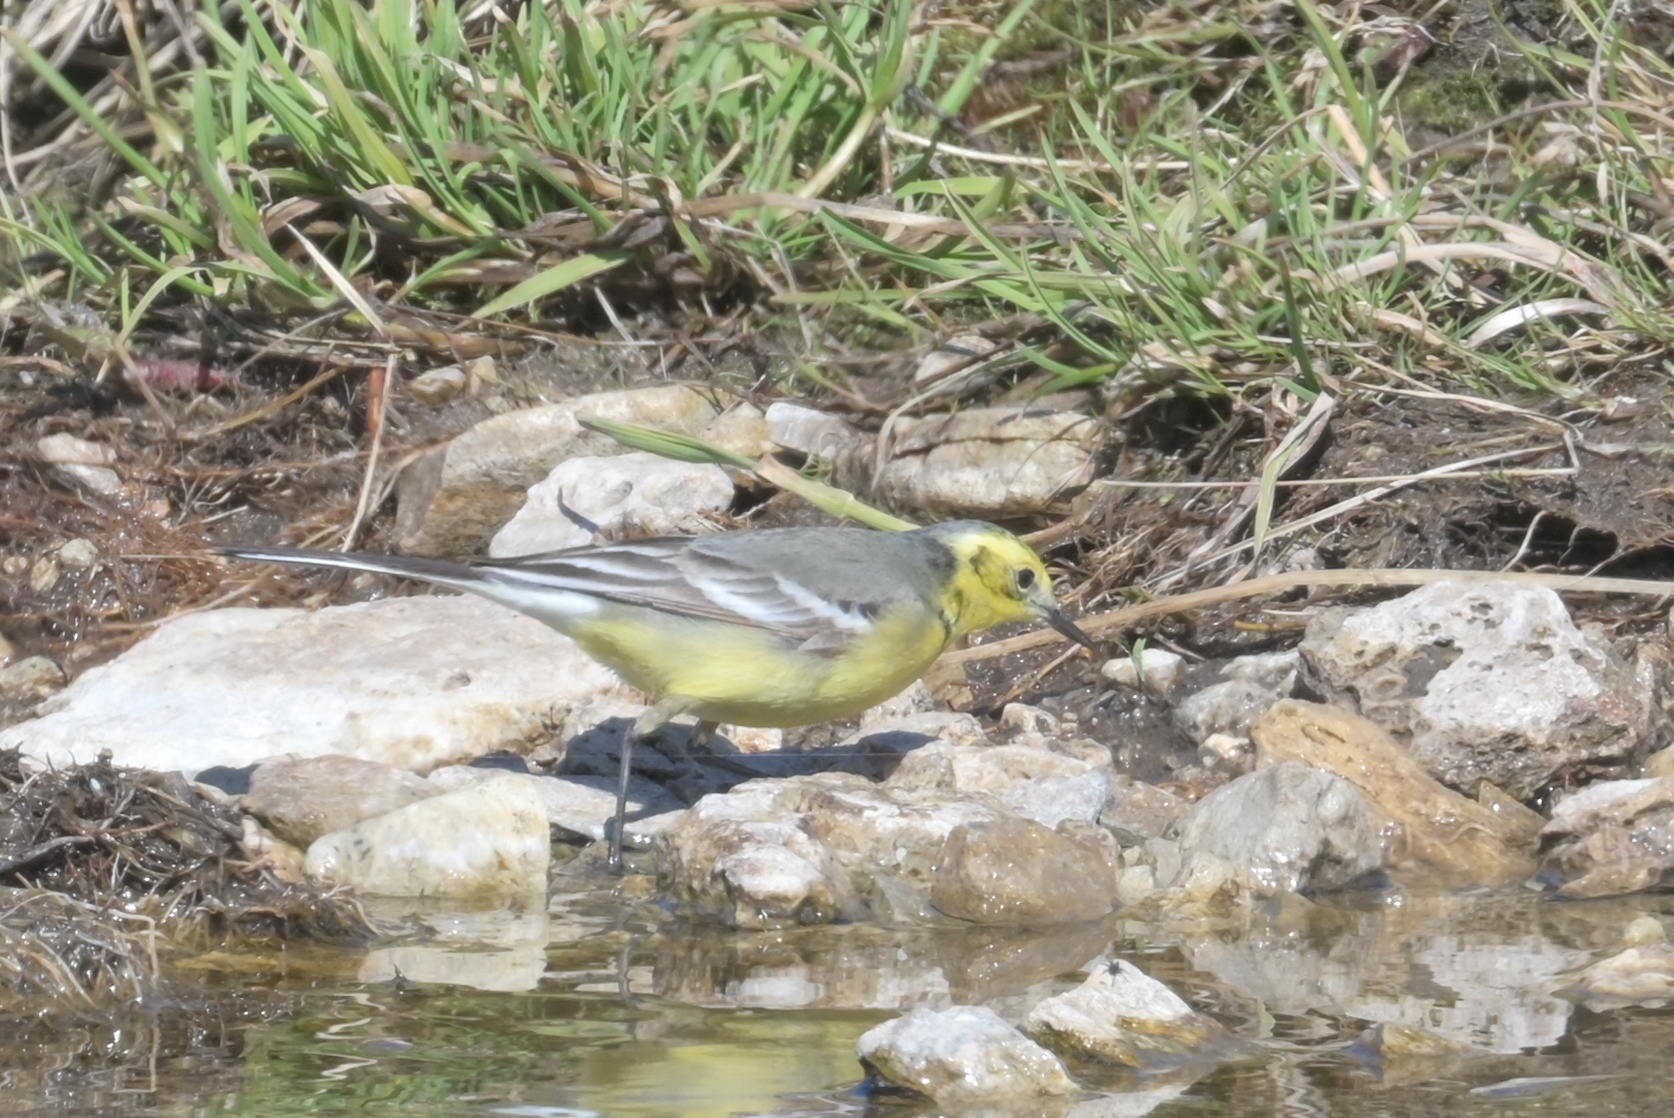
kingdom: Animalia
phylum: Chordata
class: Aves
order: Passeriformes
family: Motacillidae
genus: Motacilla
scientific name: Motacilla citreola
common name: Citrine wagtail
